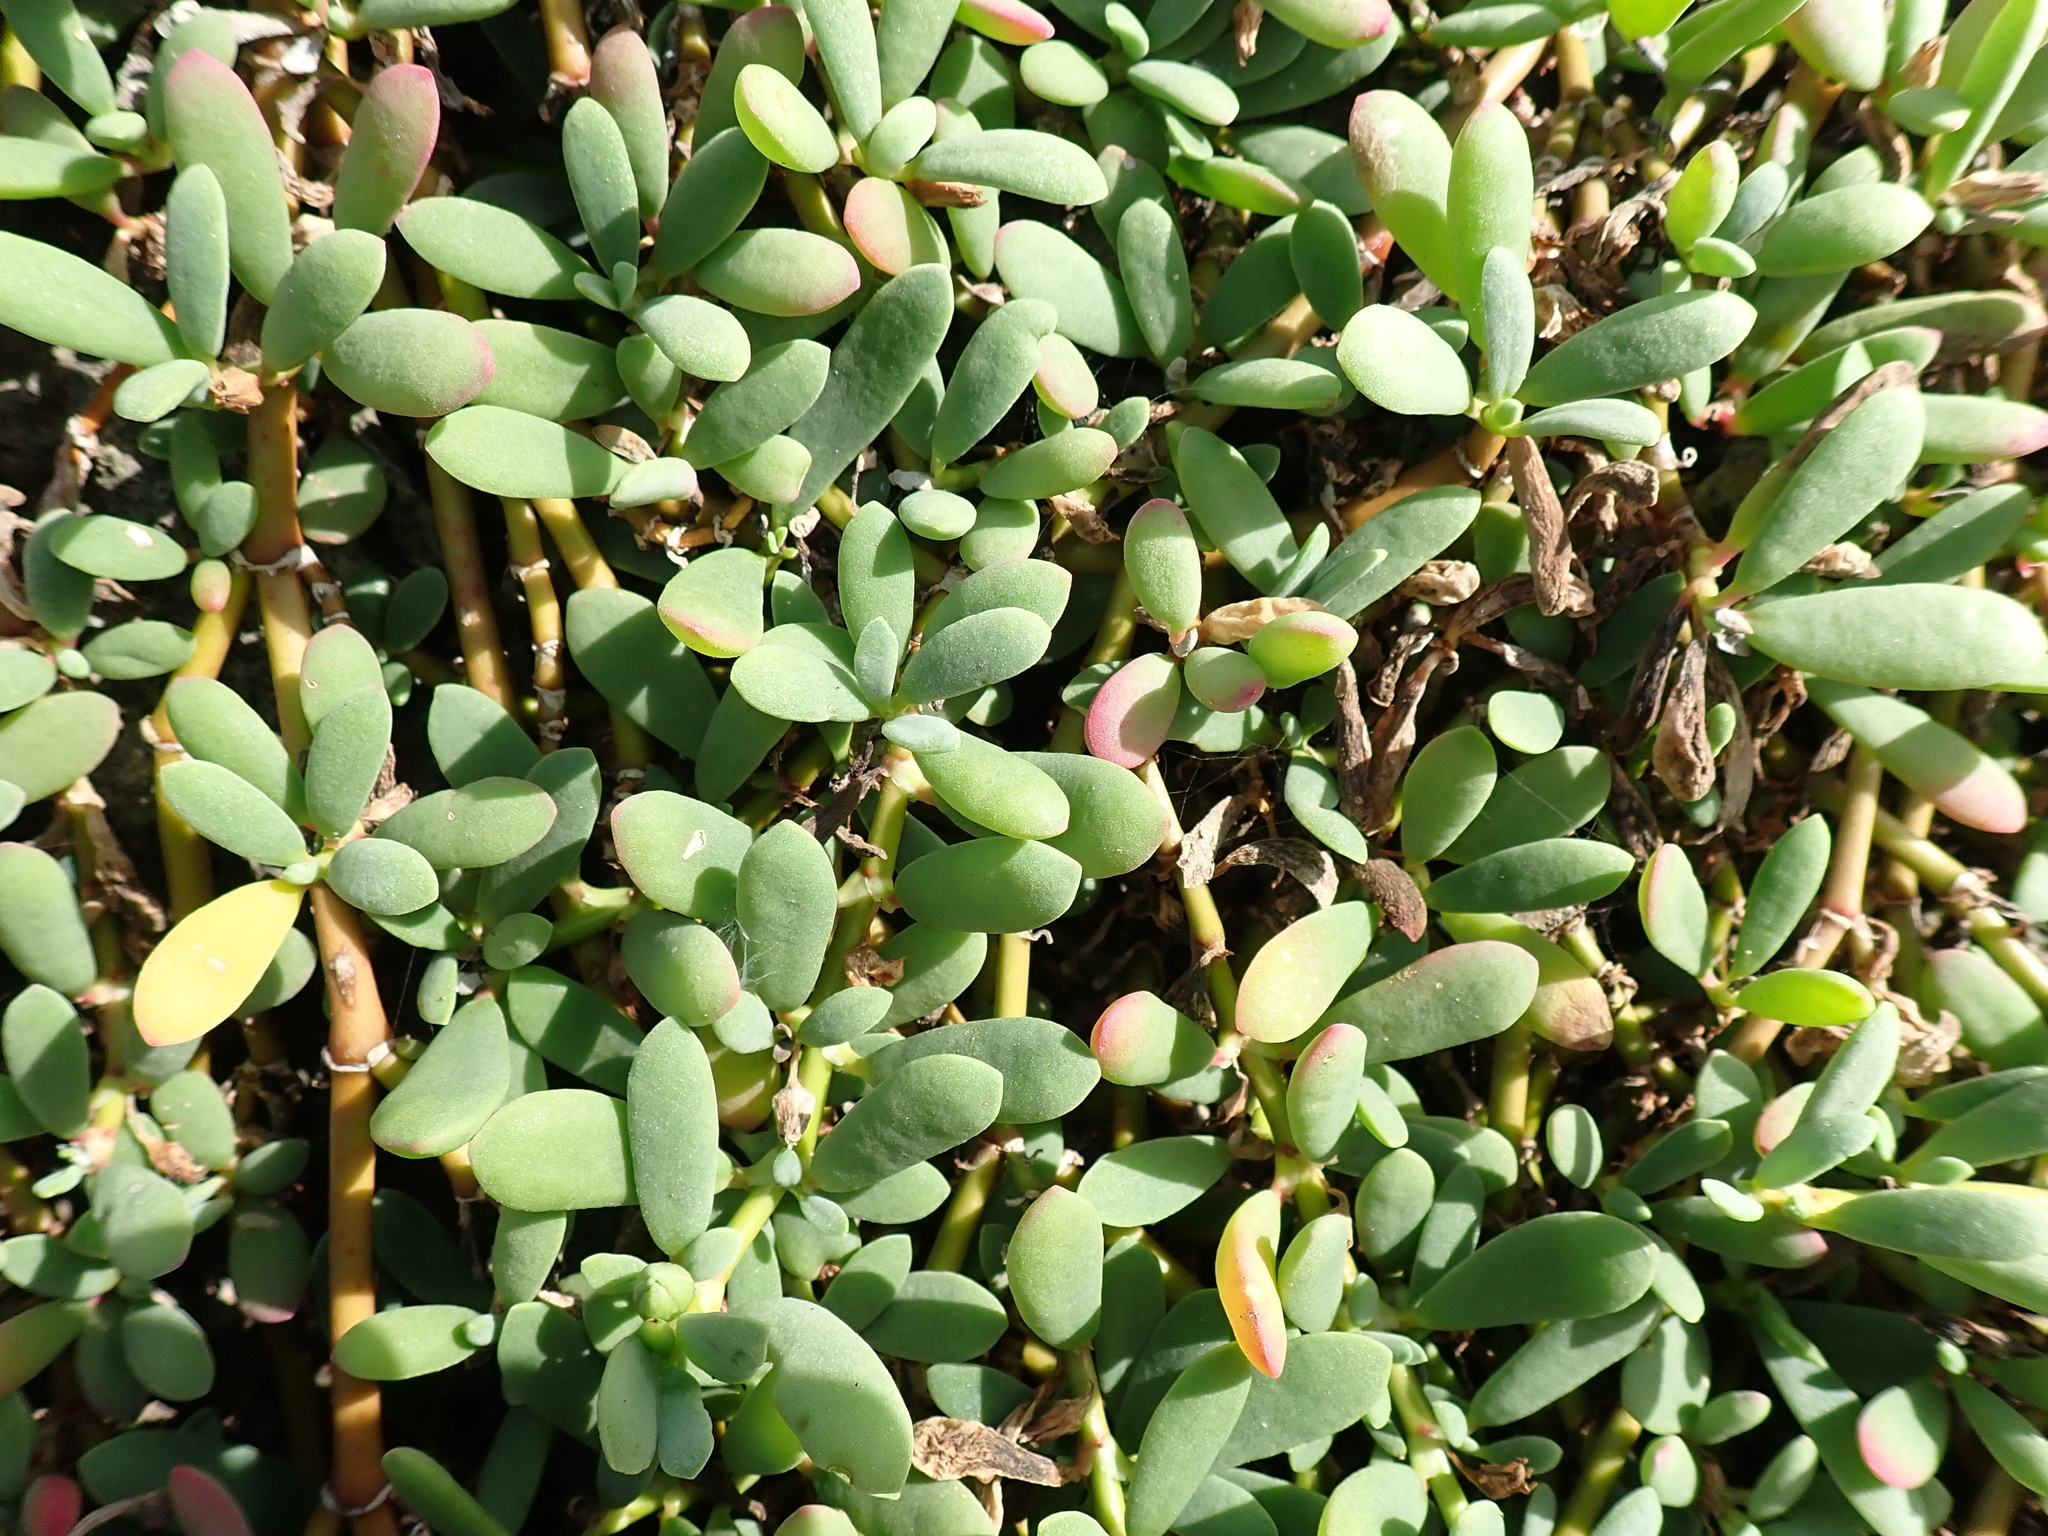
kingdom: Plantae
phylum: Tracheophyta
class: Magnoliopsida
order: Caryophyllales
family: Aizoaceae
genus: Sesuvium
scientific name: Sesuvium portulacastrum
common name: Sea-purslane
